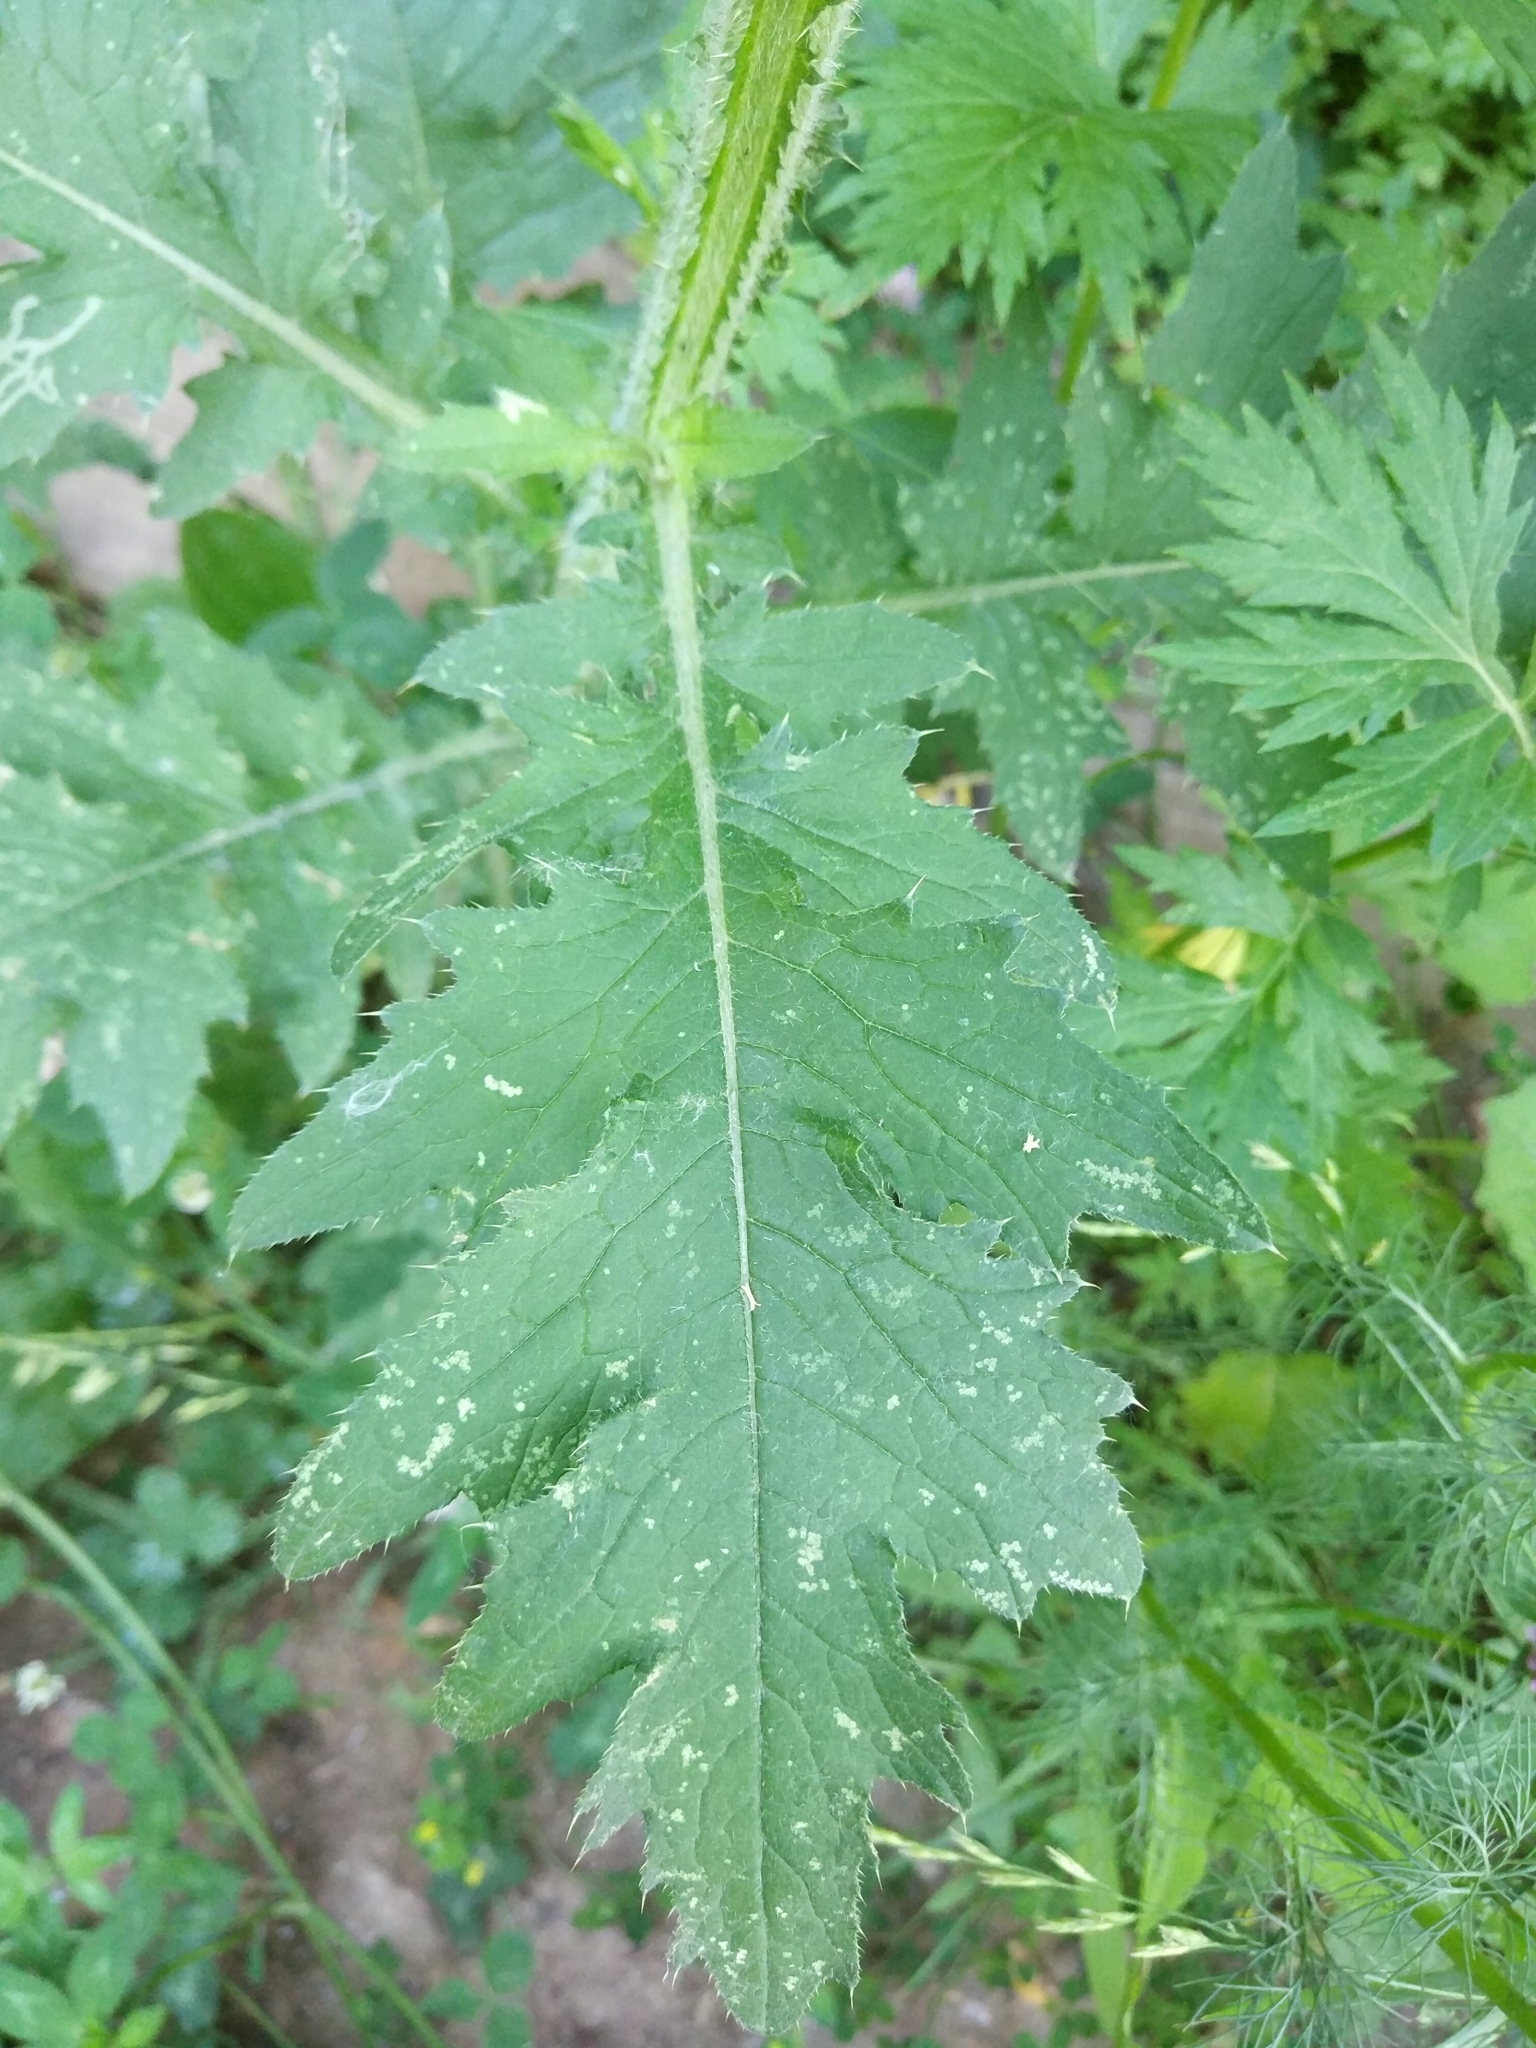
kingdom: Plantae
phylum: Tracheophyta
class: Magnoliopsida
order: Asterales
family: Asteraceae
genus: Carduus
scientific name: Carduus crispus
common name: Welted thistle
